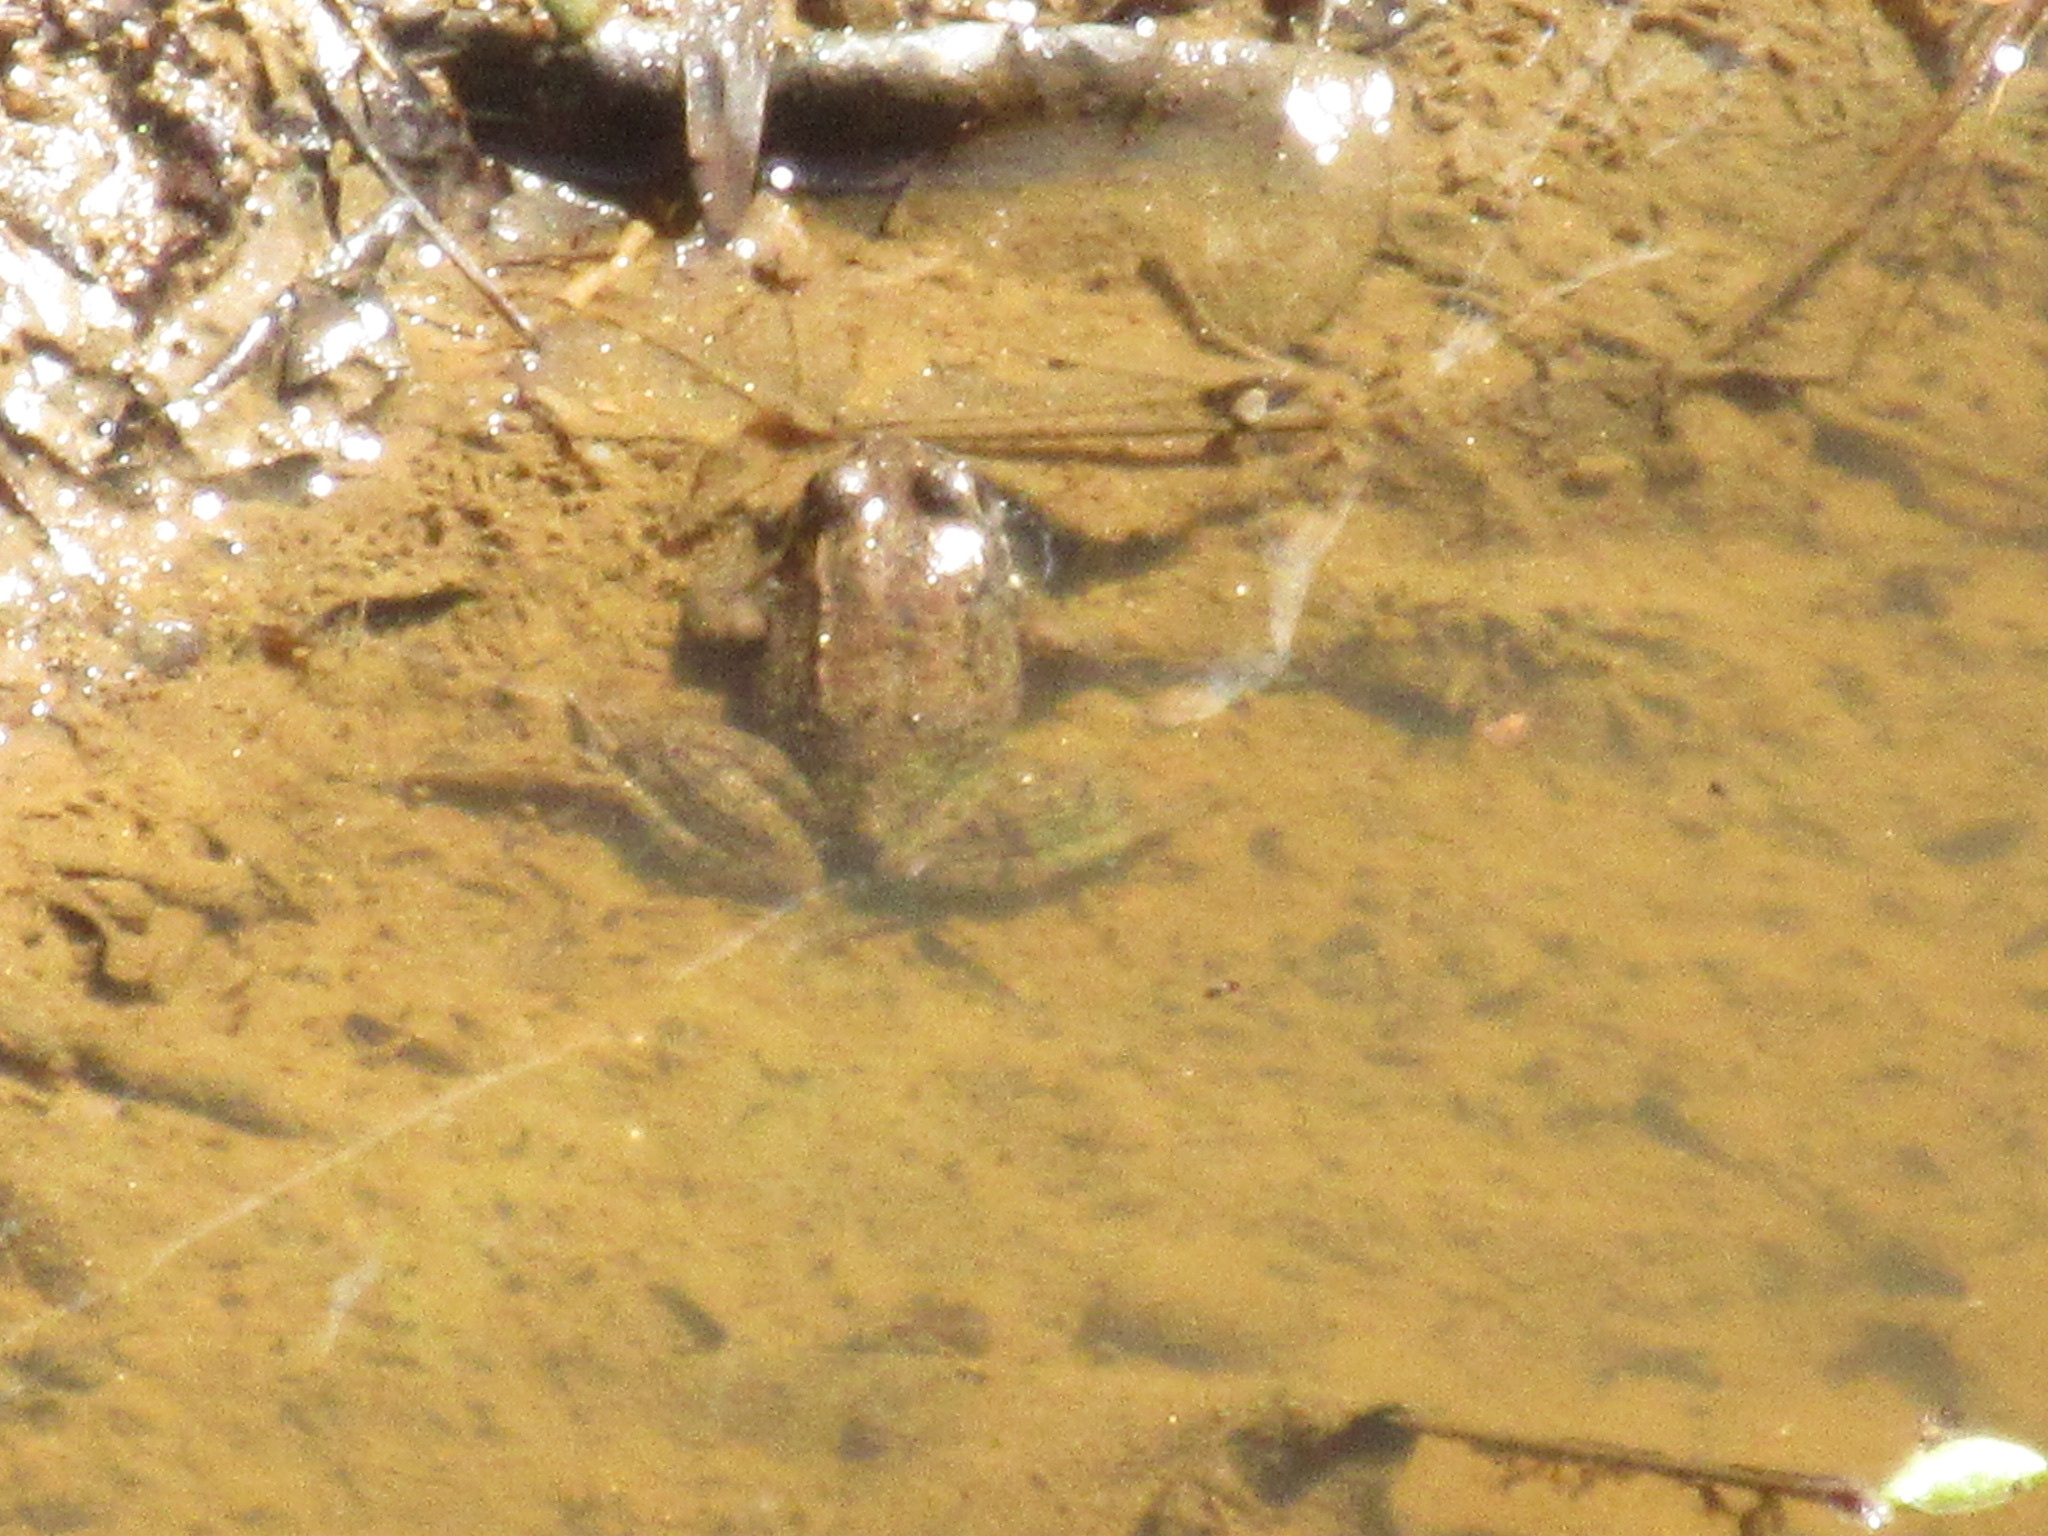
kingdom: Animalia
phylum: Chordata
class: Amphibia
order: Anura
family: Ranidae
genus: Lithobates
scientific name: Lithobates clamitans
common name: Green frog
